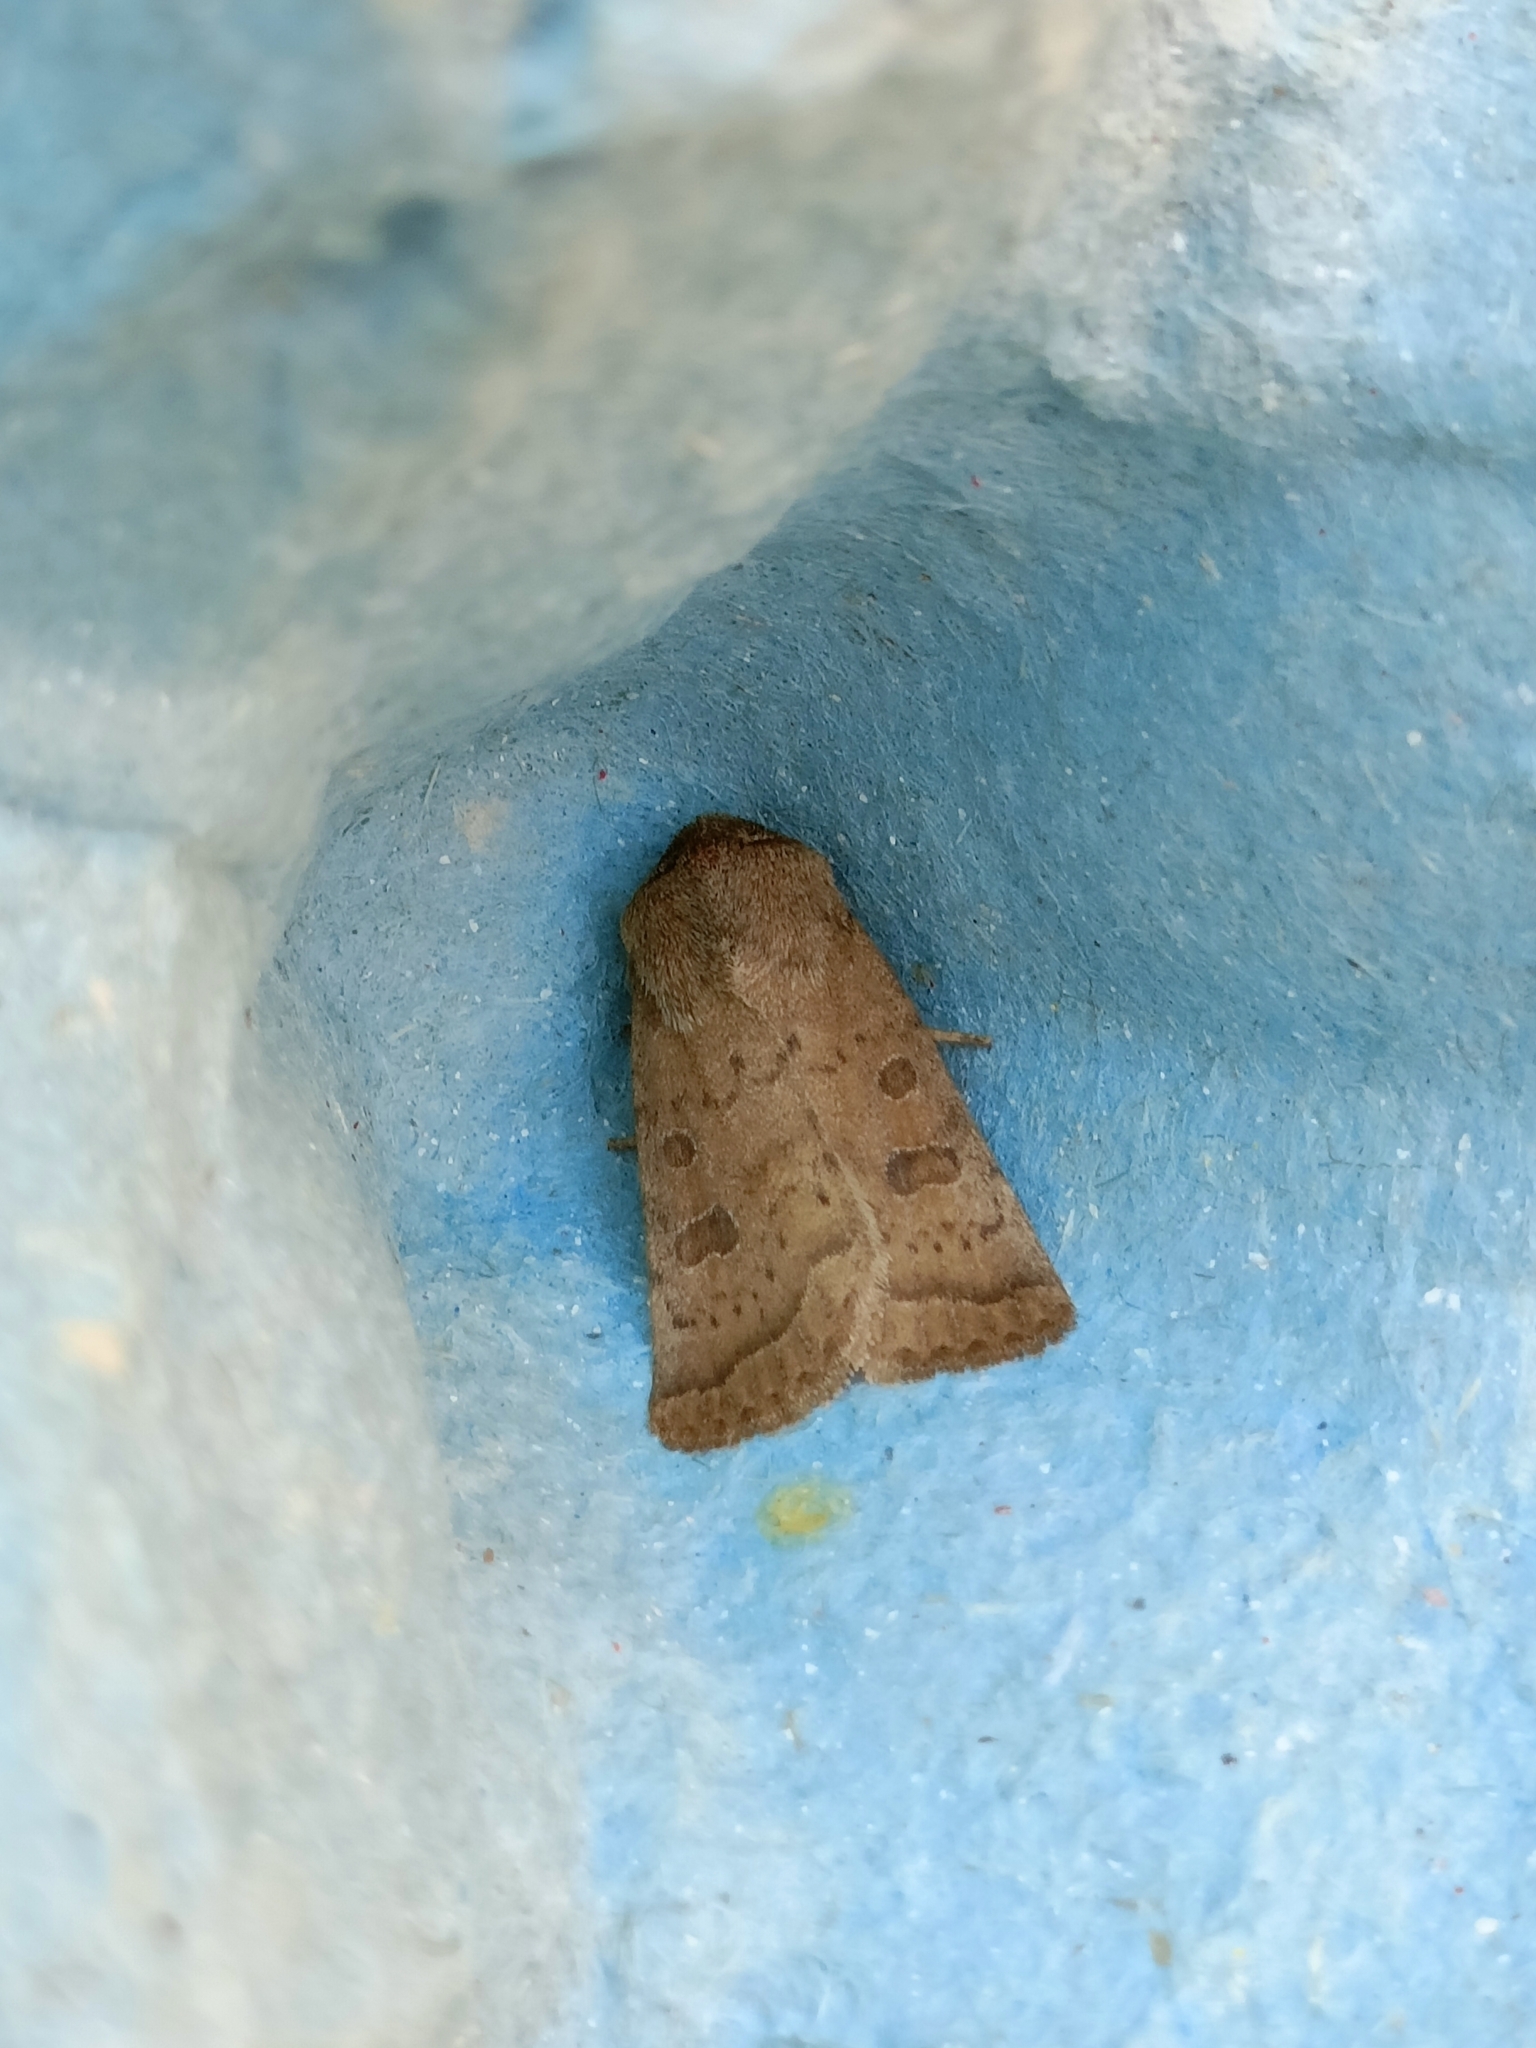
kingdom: Animalia
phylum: Arthropoda
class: Insecta
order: Lepidoptera
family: Noctuidae
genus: Hoplodrina
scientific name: Hoplodrina octogenaria
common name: Uncertain
